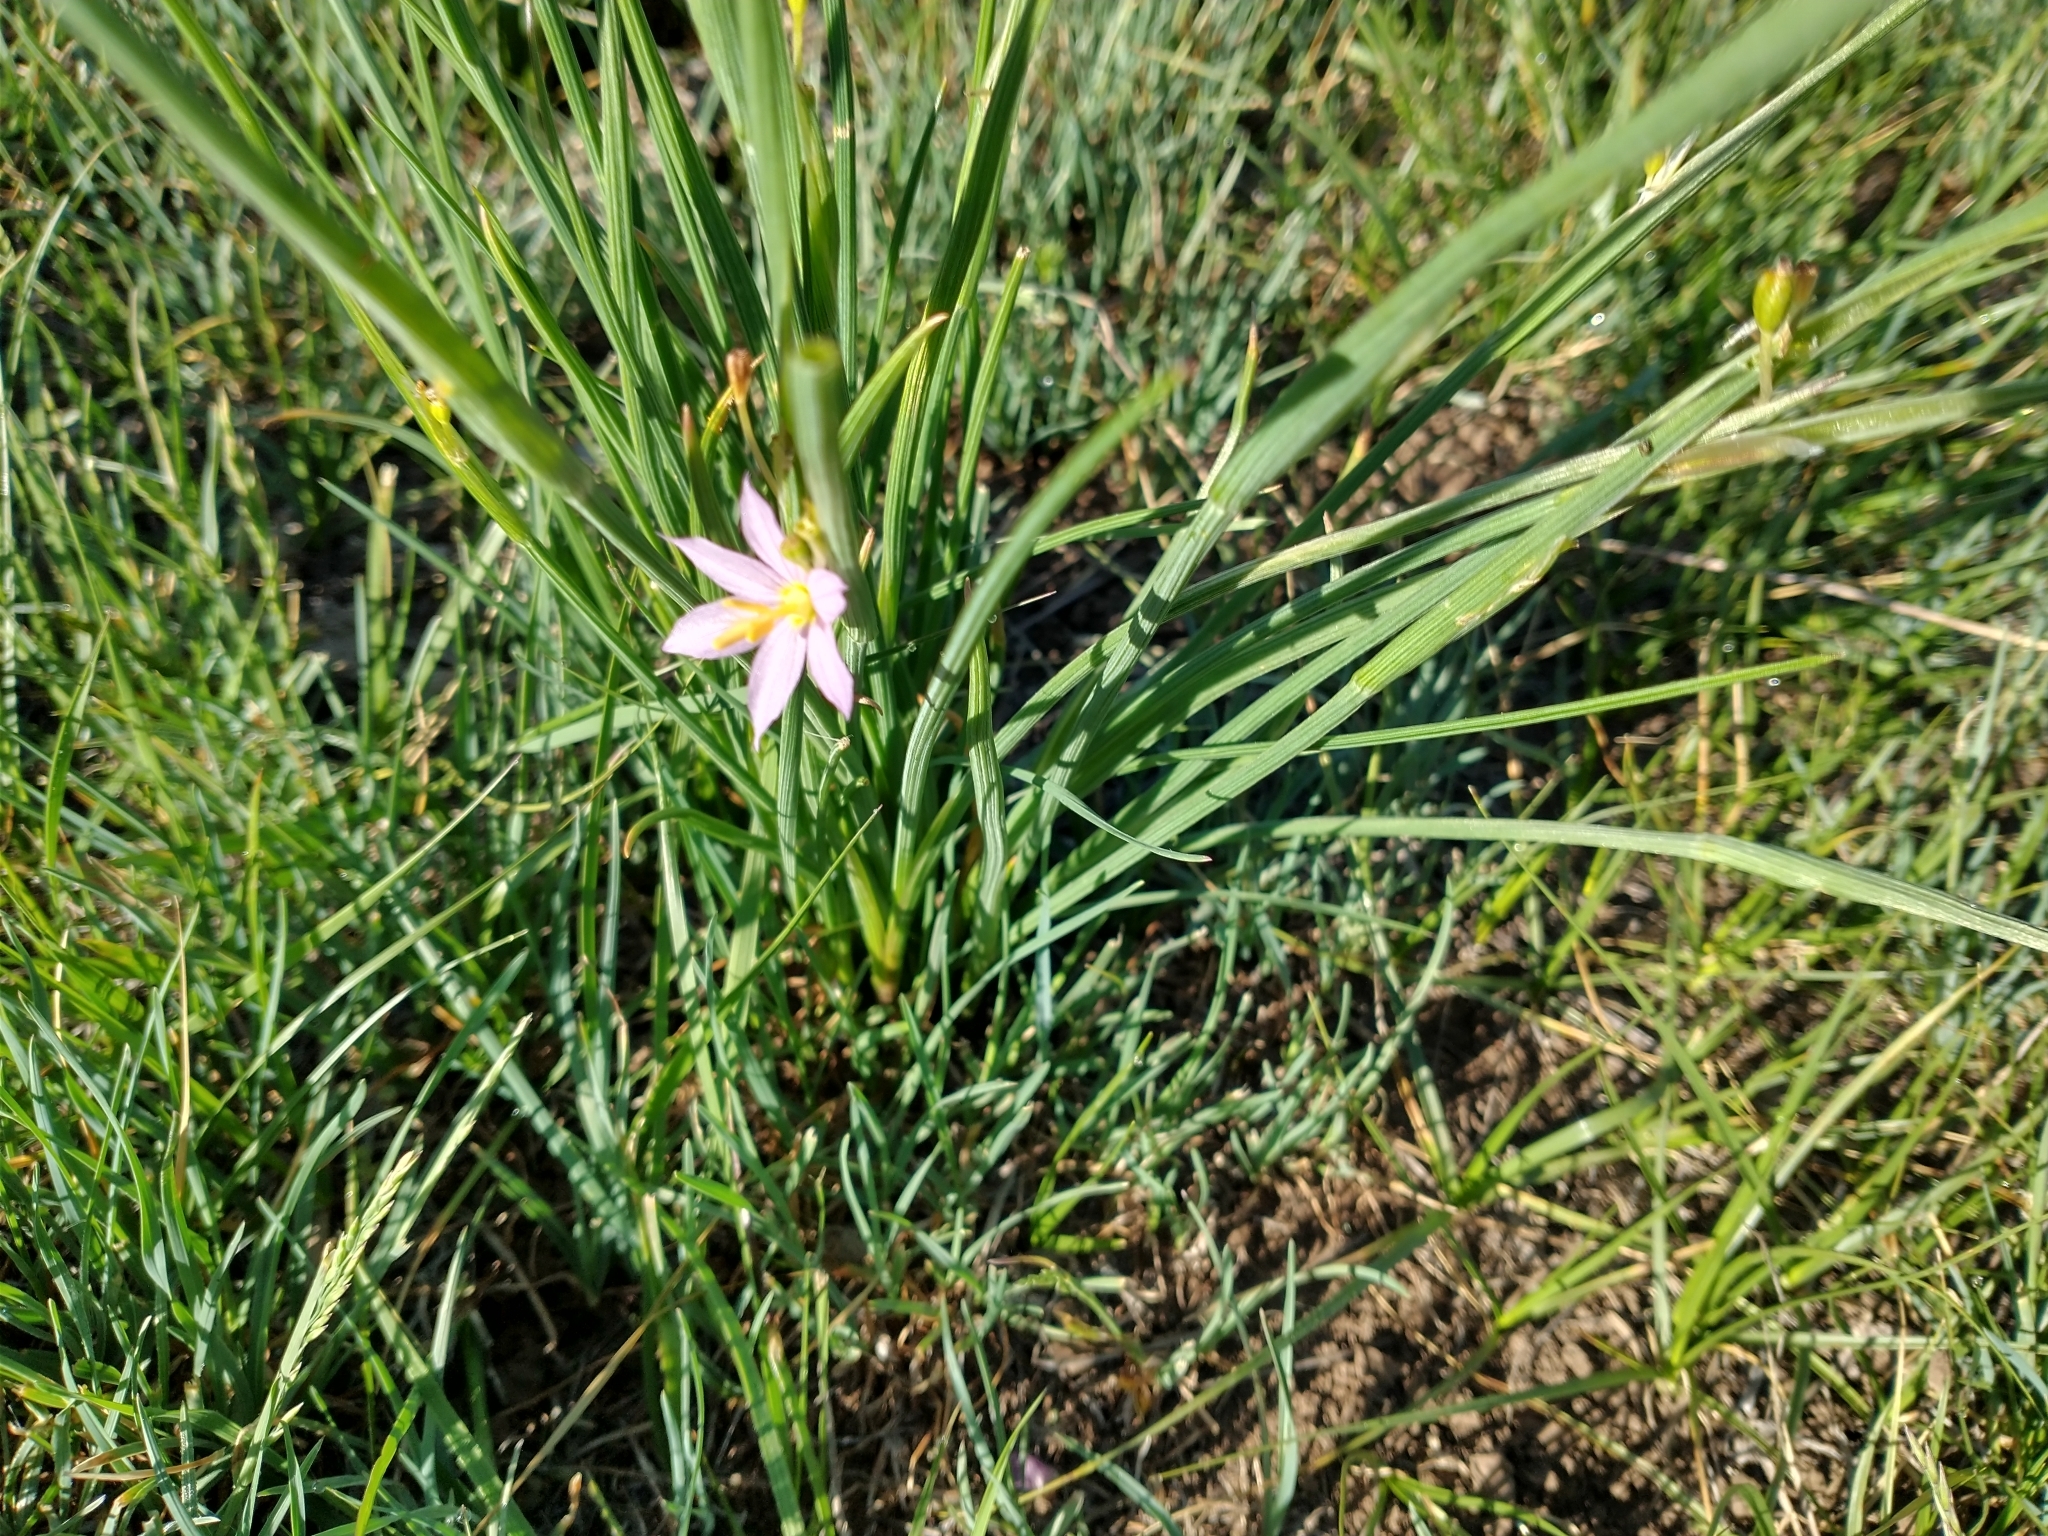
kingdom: Plantae
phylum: Tracheophyta
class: Liliopsida
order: Asparagales
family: Iridaceae
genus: Olsynium
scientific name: Olsynium douglasii
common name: Douglas' grasswidow
